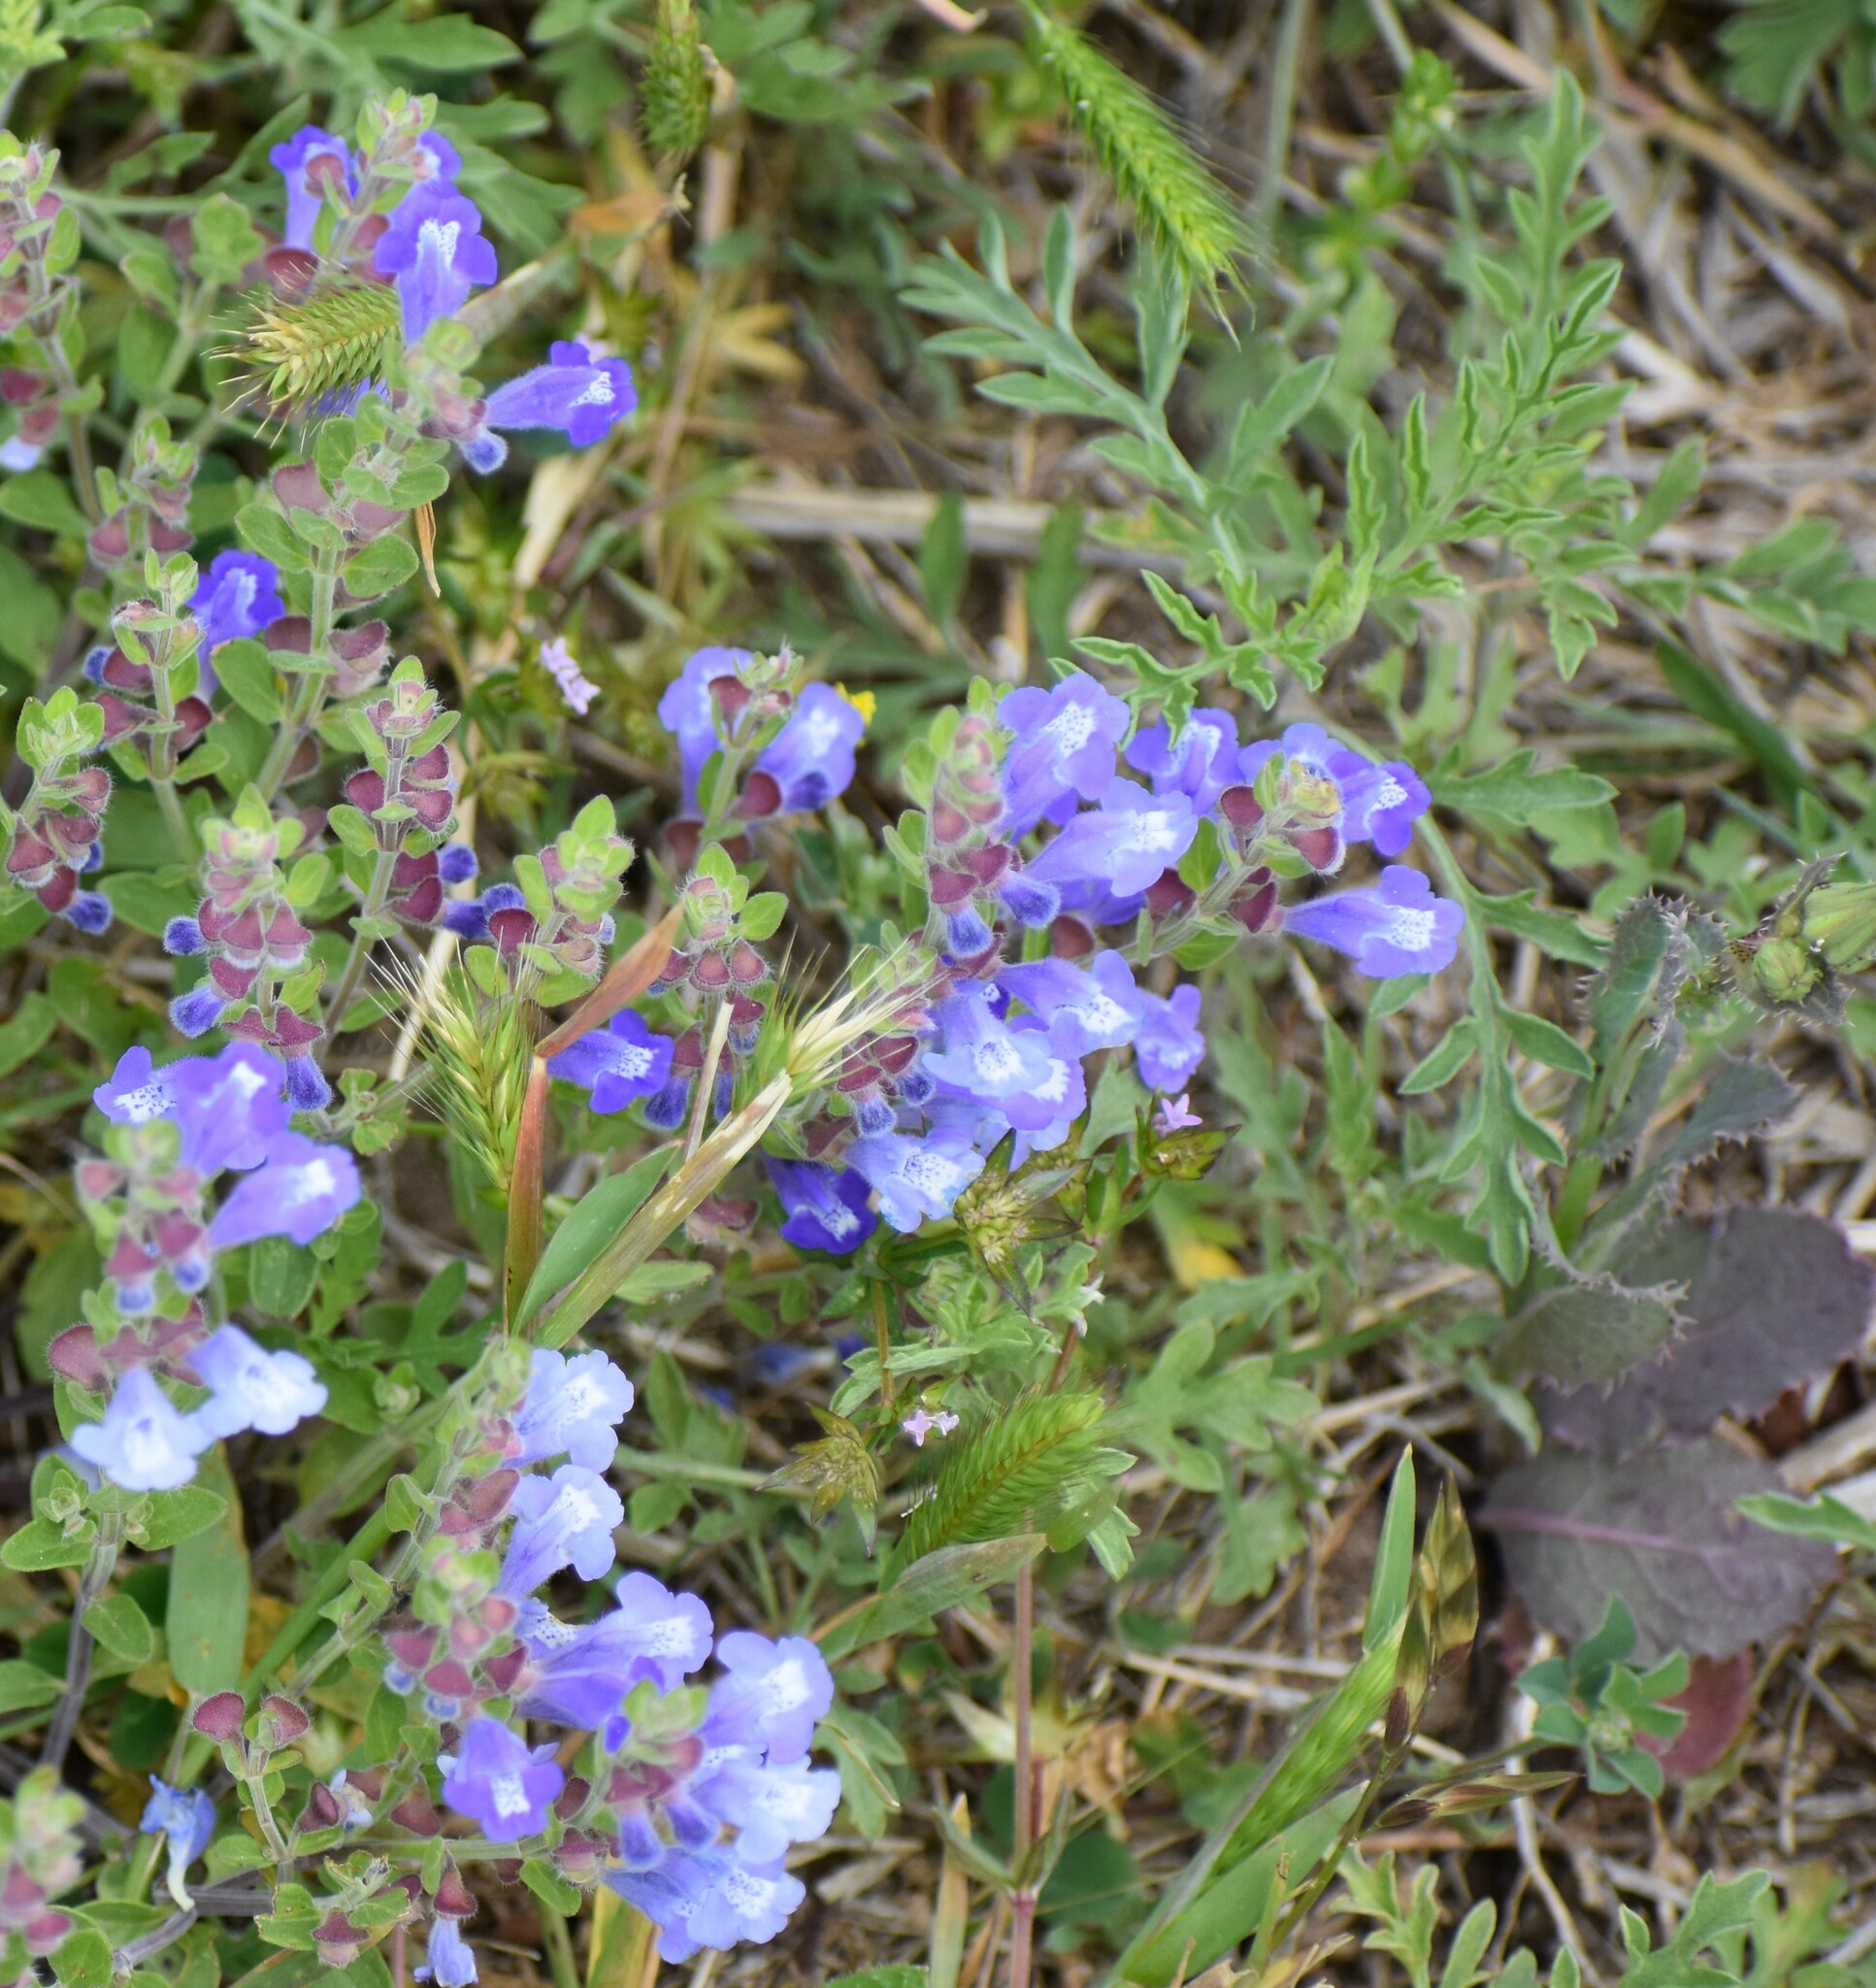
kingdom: Plantae
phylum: Tracheophyta
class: Magnoliopsida
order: Lamiales
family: Lamiaceae
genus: Scutellaria
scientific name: Scutellaria drummondii
